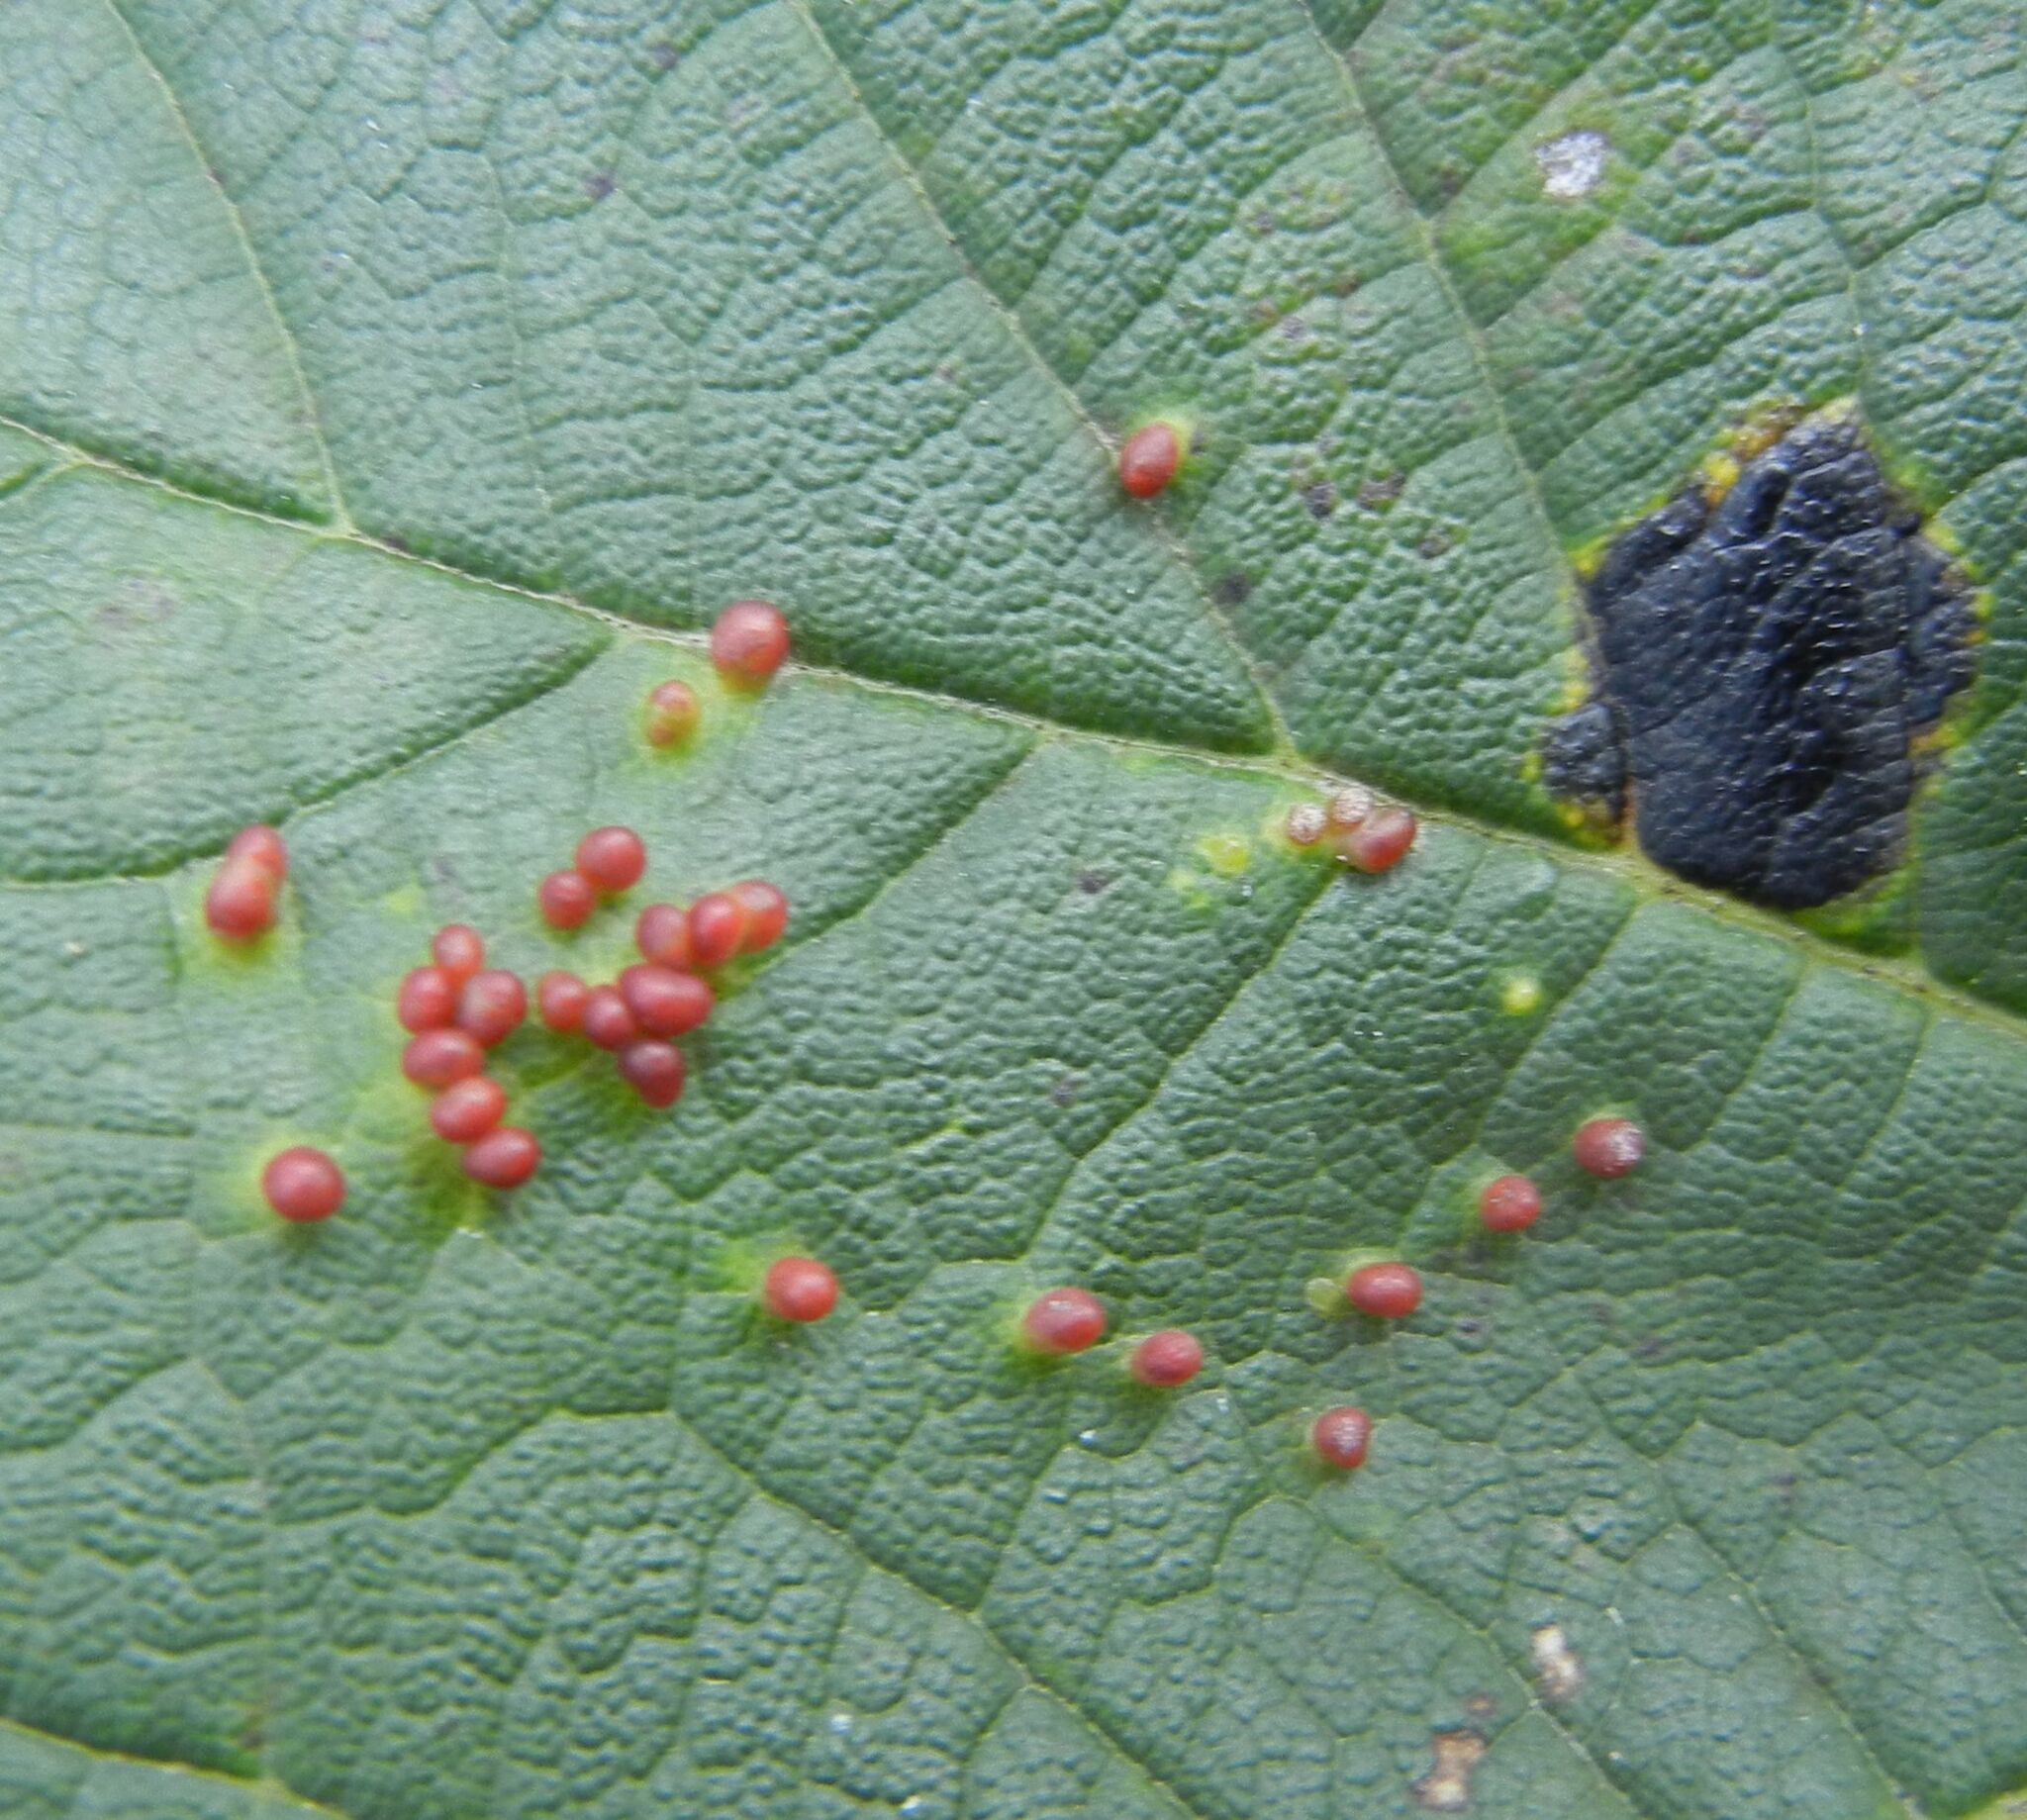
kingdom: Animalia
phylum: Arthropoda
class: Arachnida
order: Trombidiformes
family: Eriophyidae
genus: Aceria
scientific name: Aceria cephaloneus
